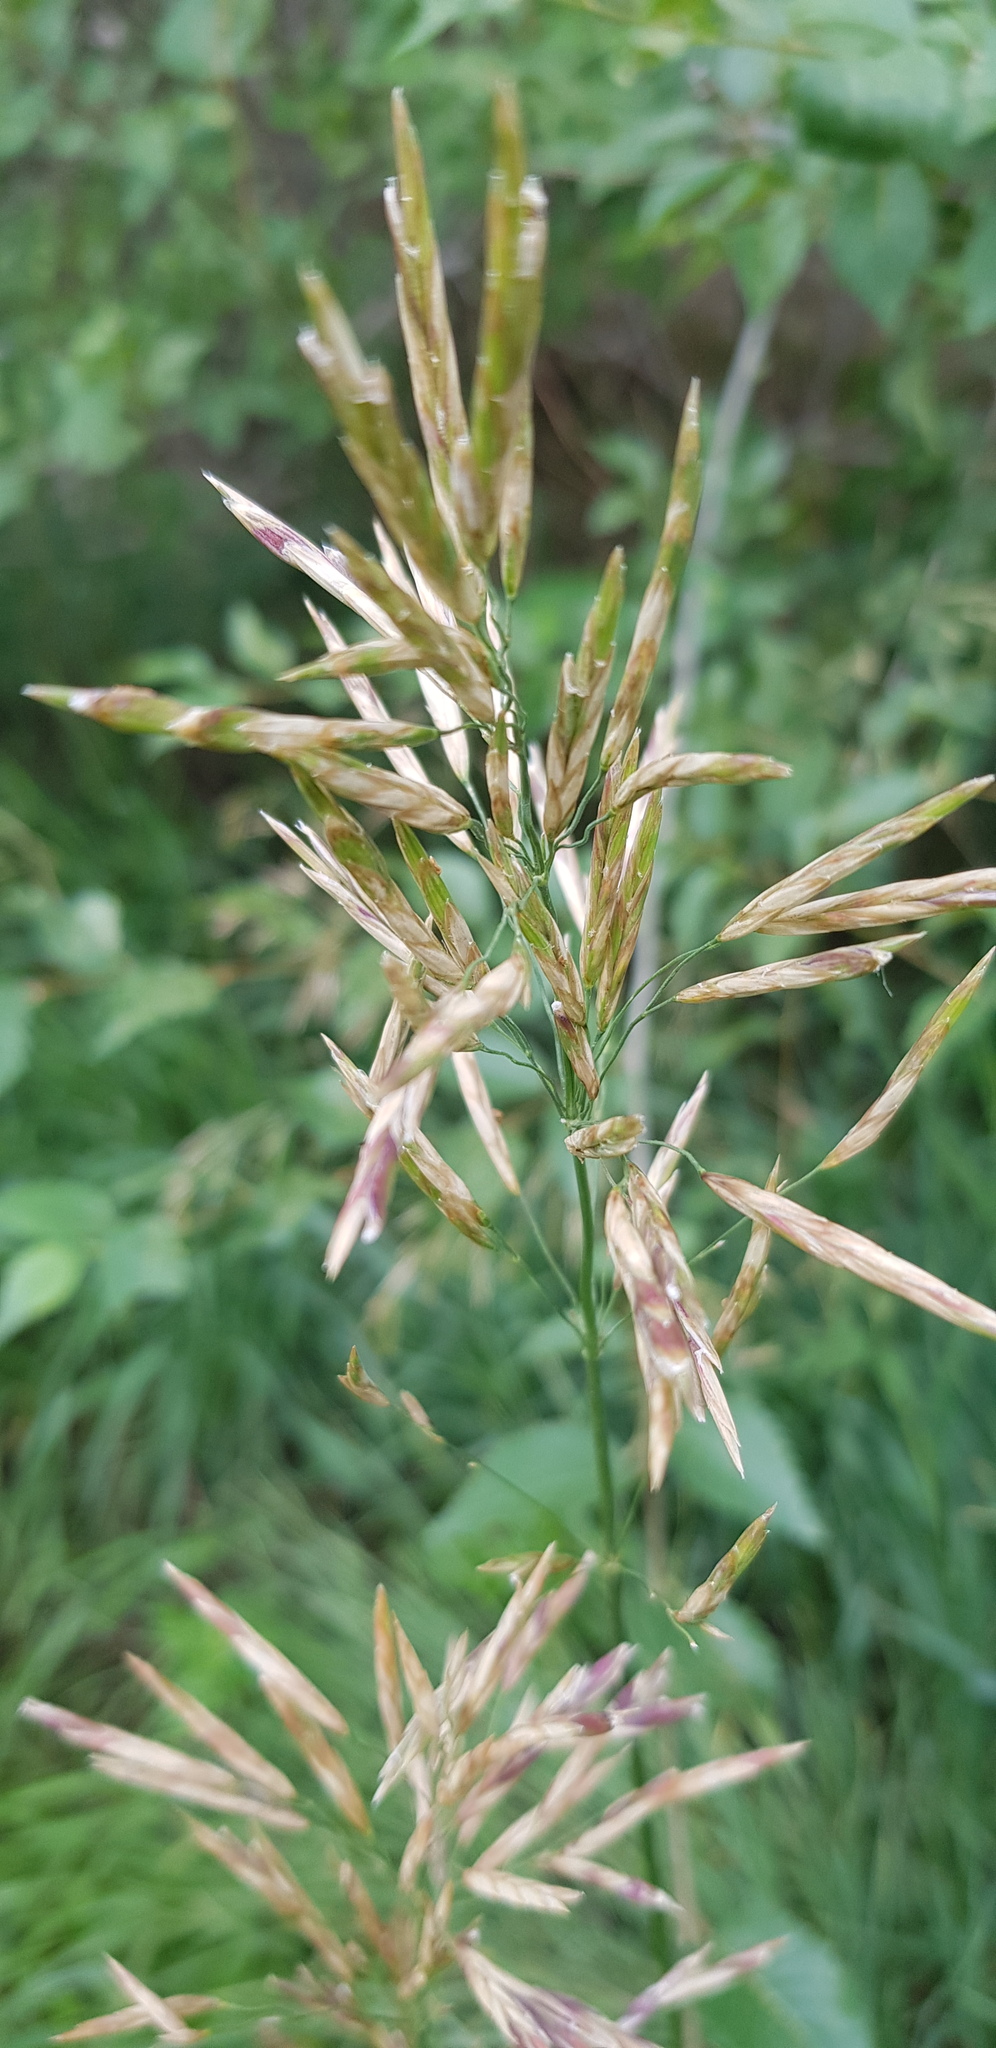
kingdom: Plantae
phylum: Tracheophyta
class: Liliopsida
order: Poales
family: Poaceae
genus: Bromus
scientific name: Bromus inermis
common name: Smooth brome
